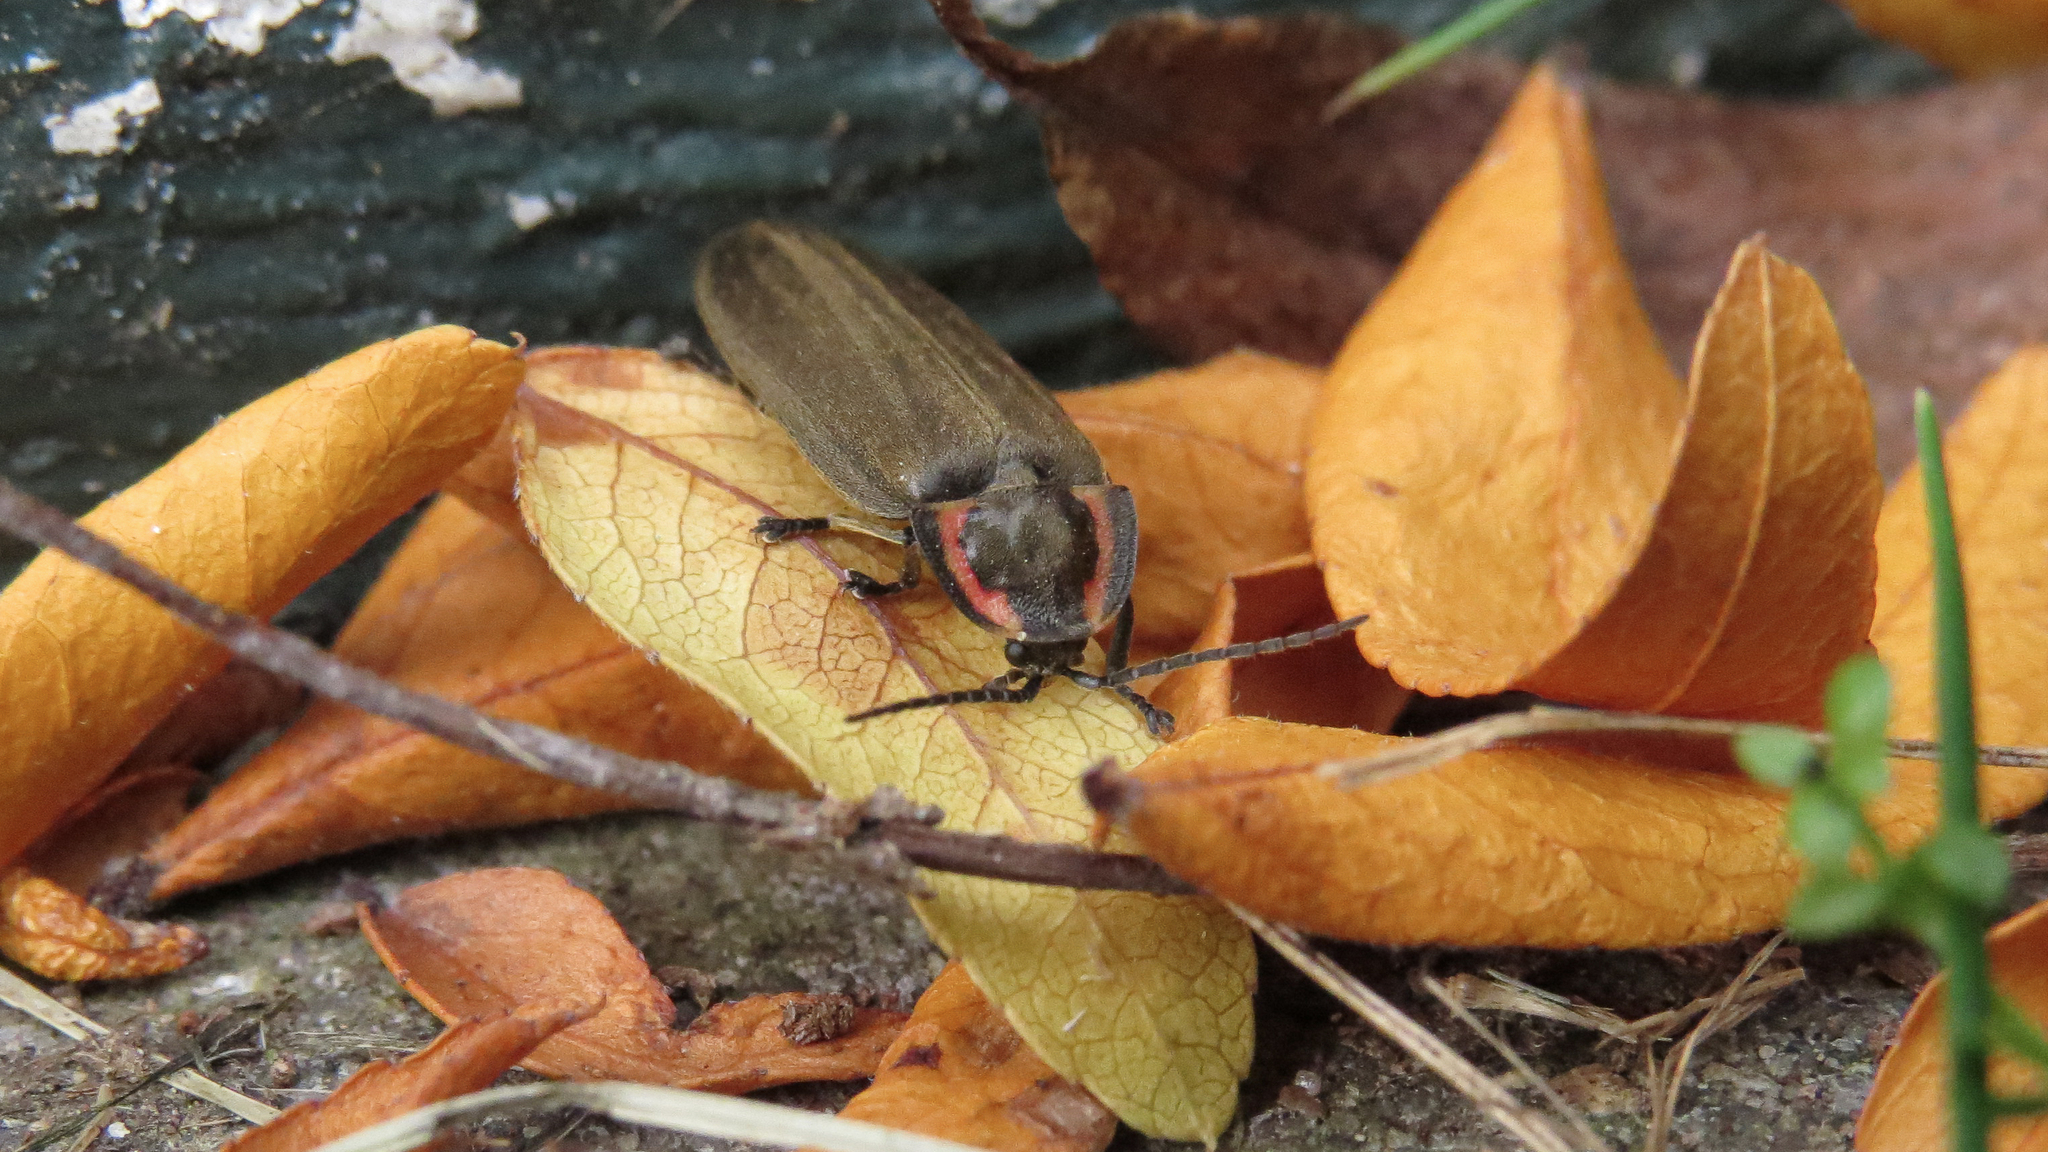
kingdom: Animalia
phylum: Arthropoda
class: Insecta
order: Coleoptera
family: Lampyridae
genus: Photinus
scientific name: Photinus corrusca
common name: Winter firefly
